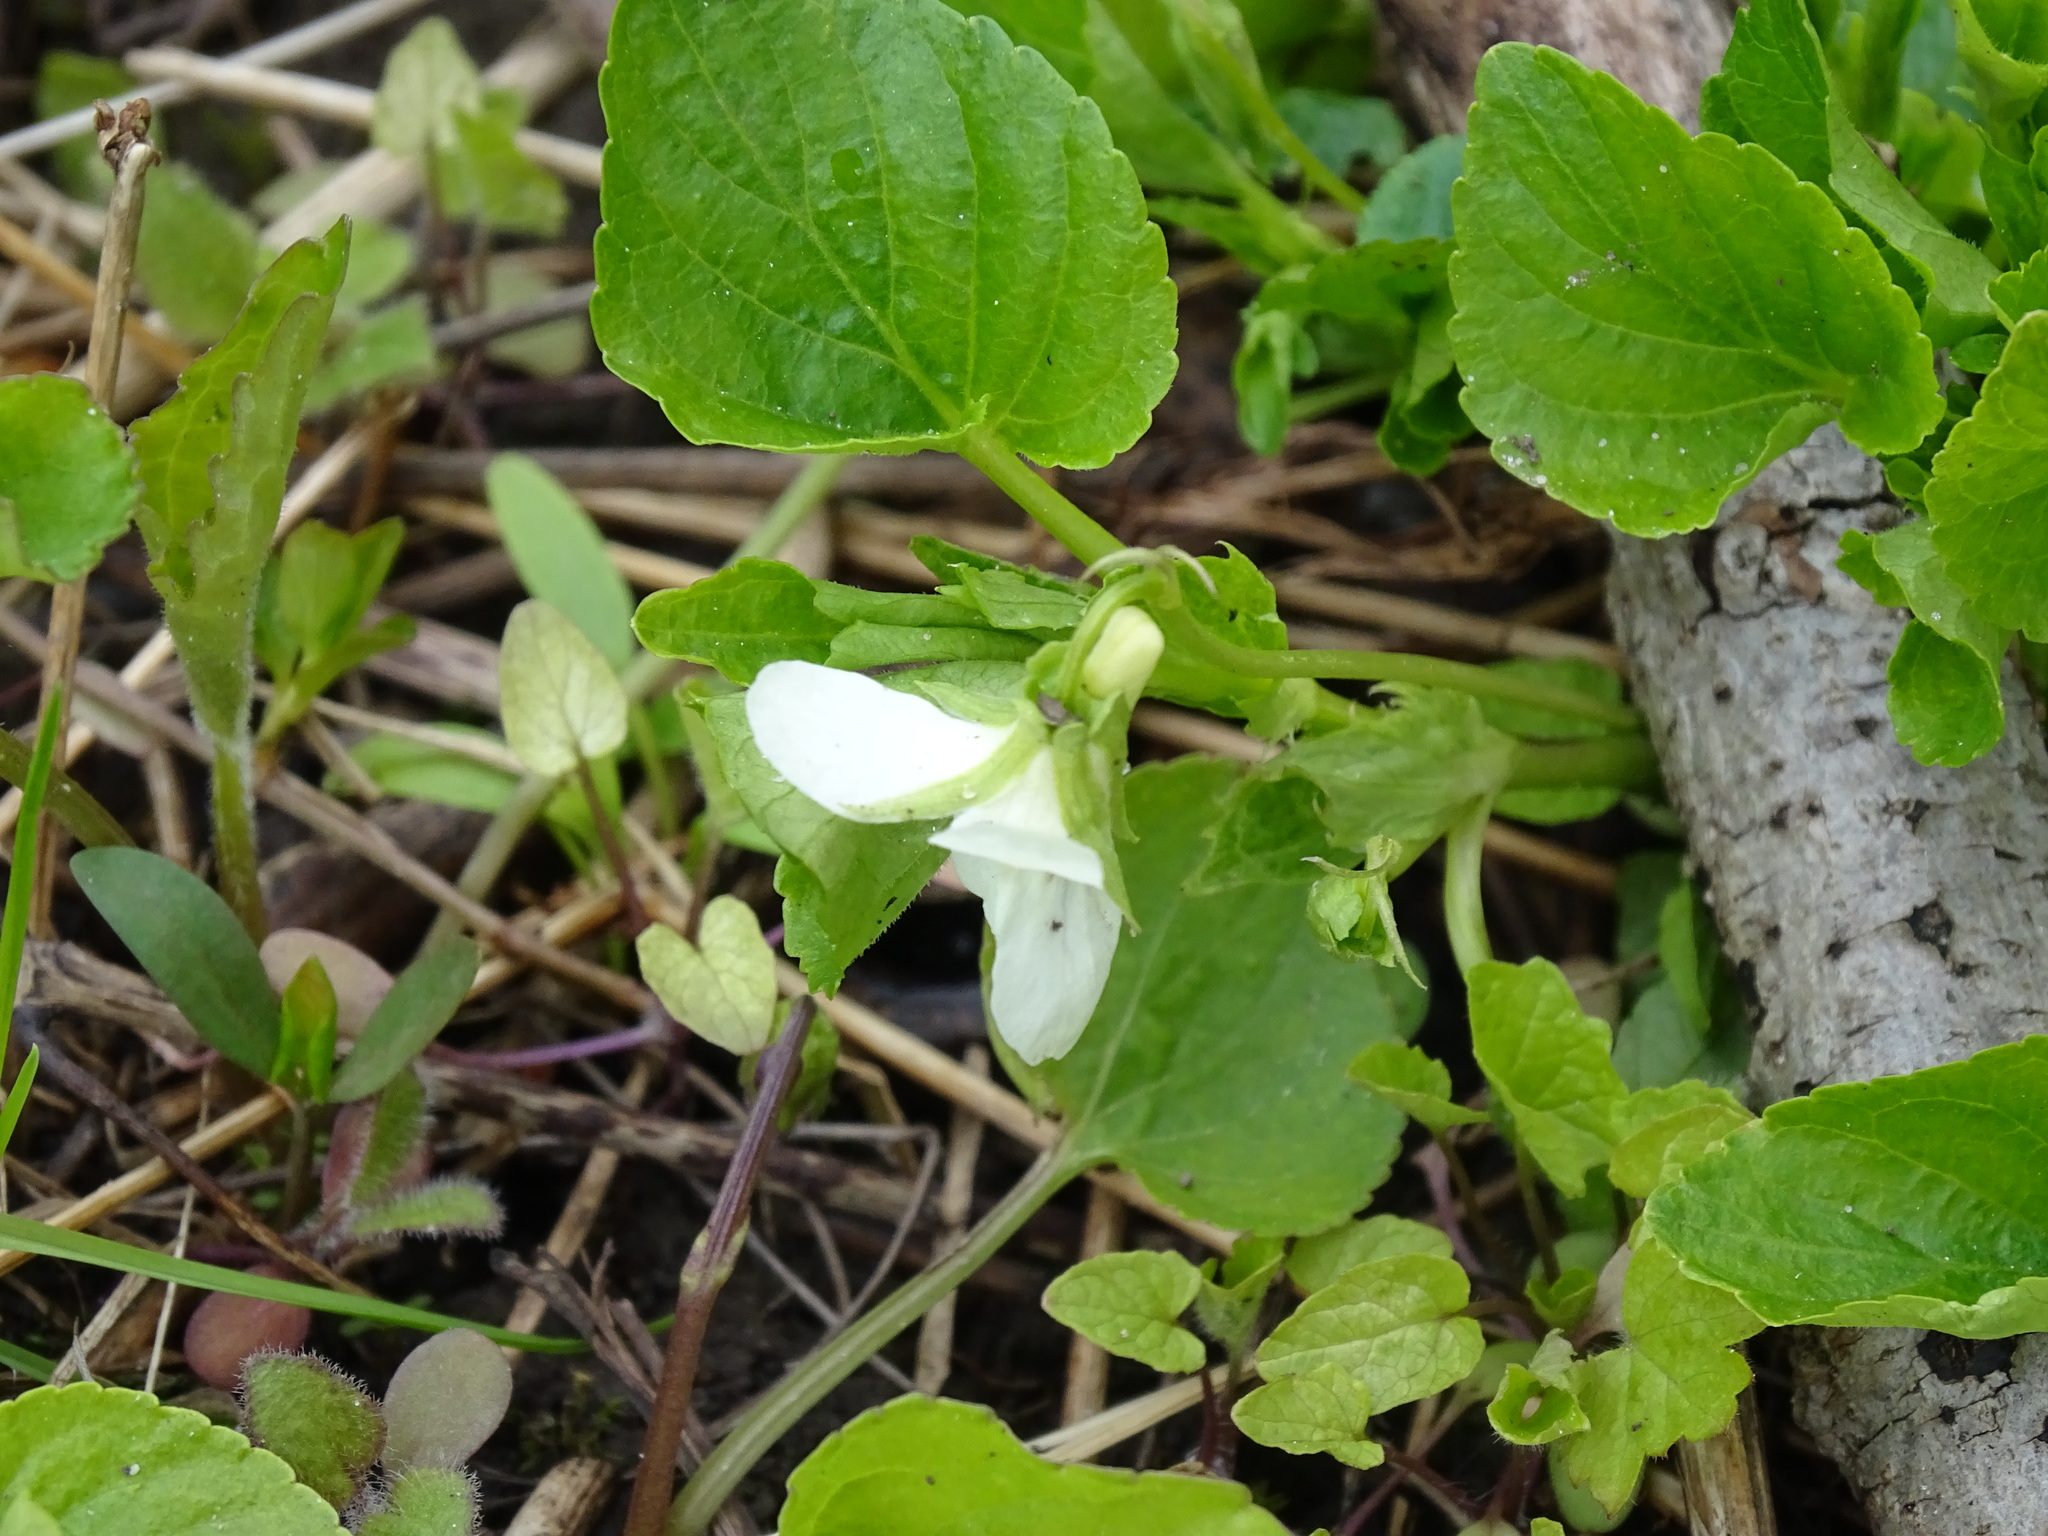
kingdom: Plantae
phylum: Tracheophyta
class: Magnoliopsida
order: Malpighiales
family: Violaceae
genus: Viola
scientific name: Viola striata
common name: Cream violet
